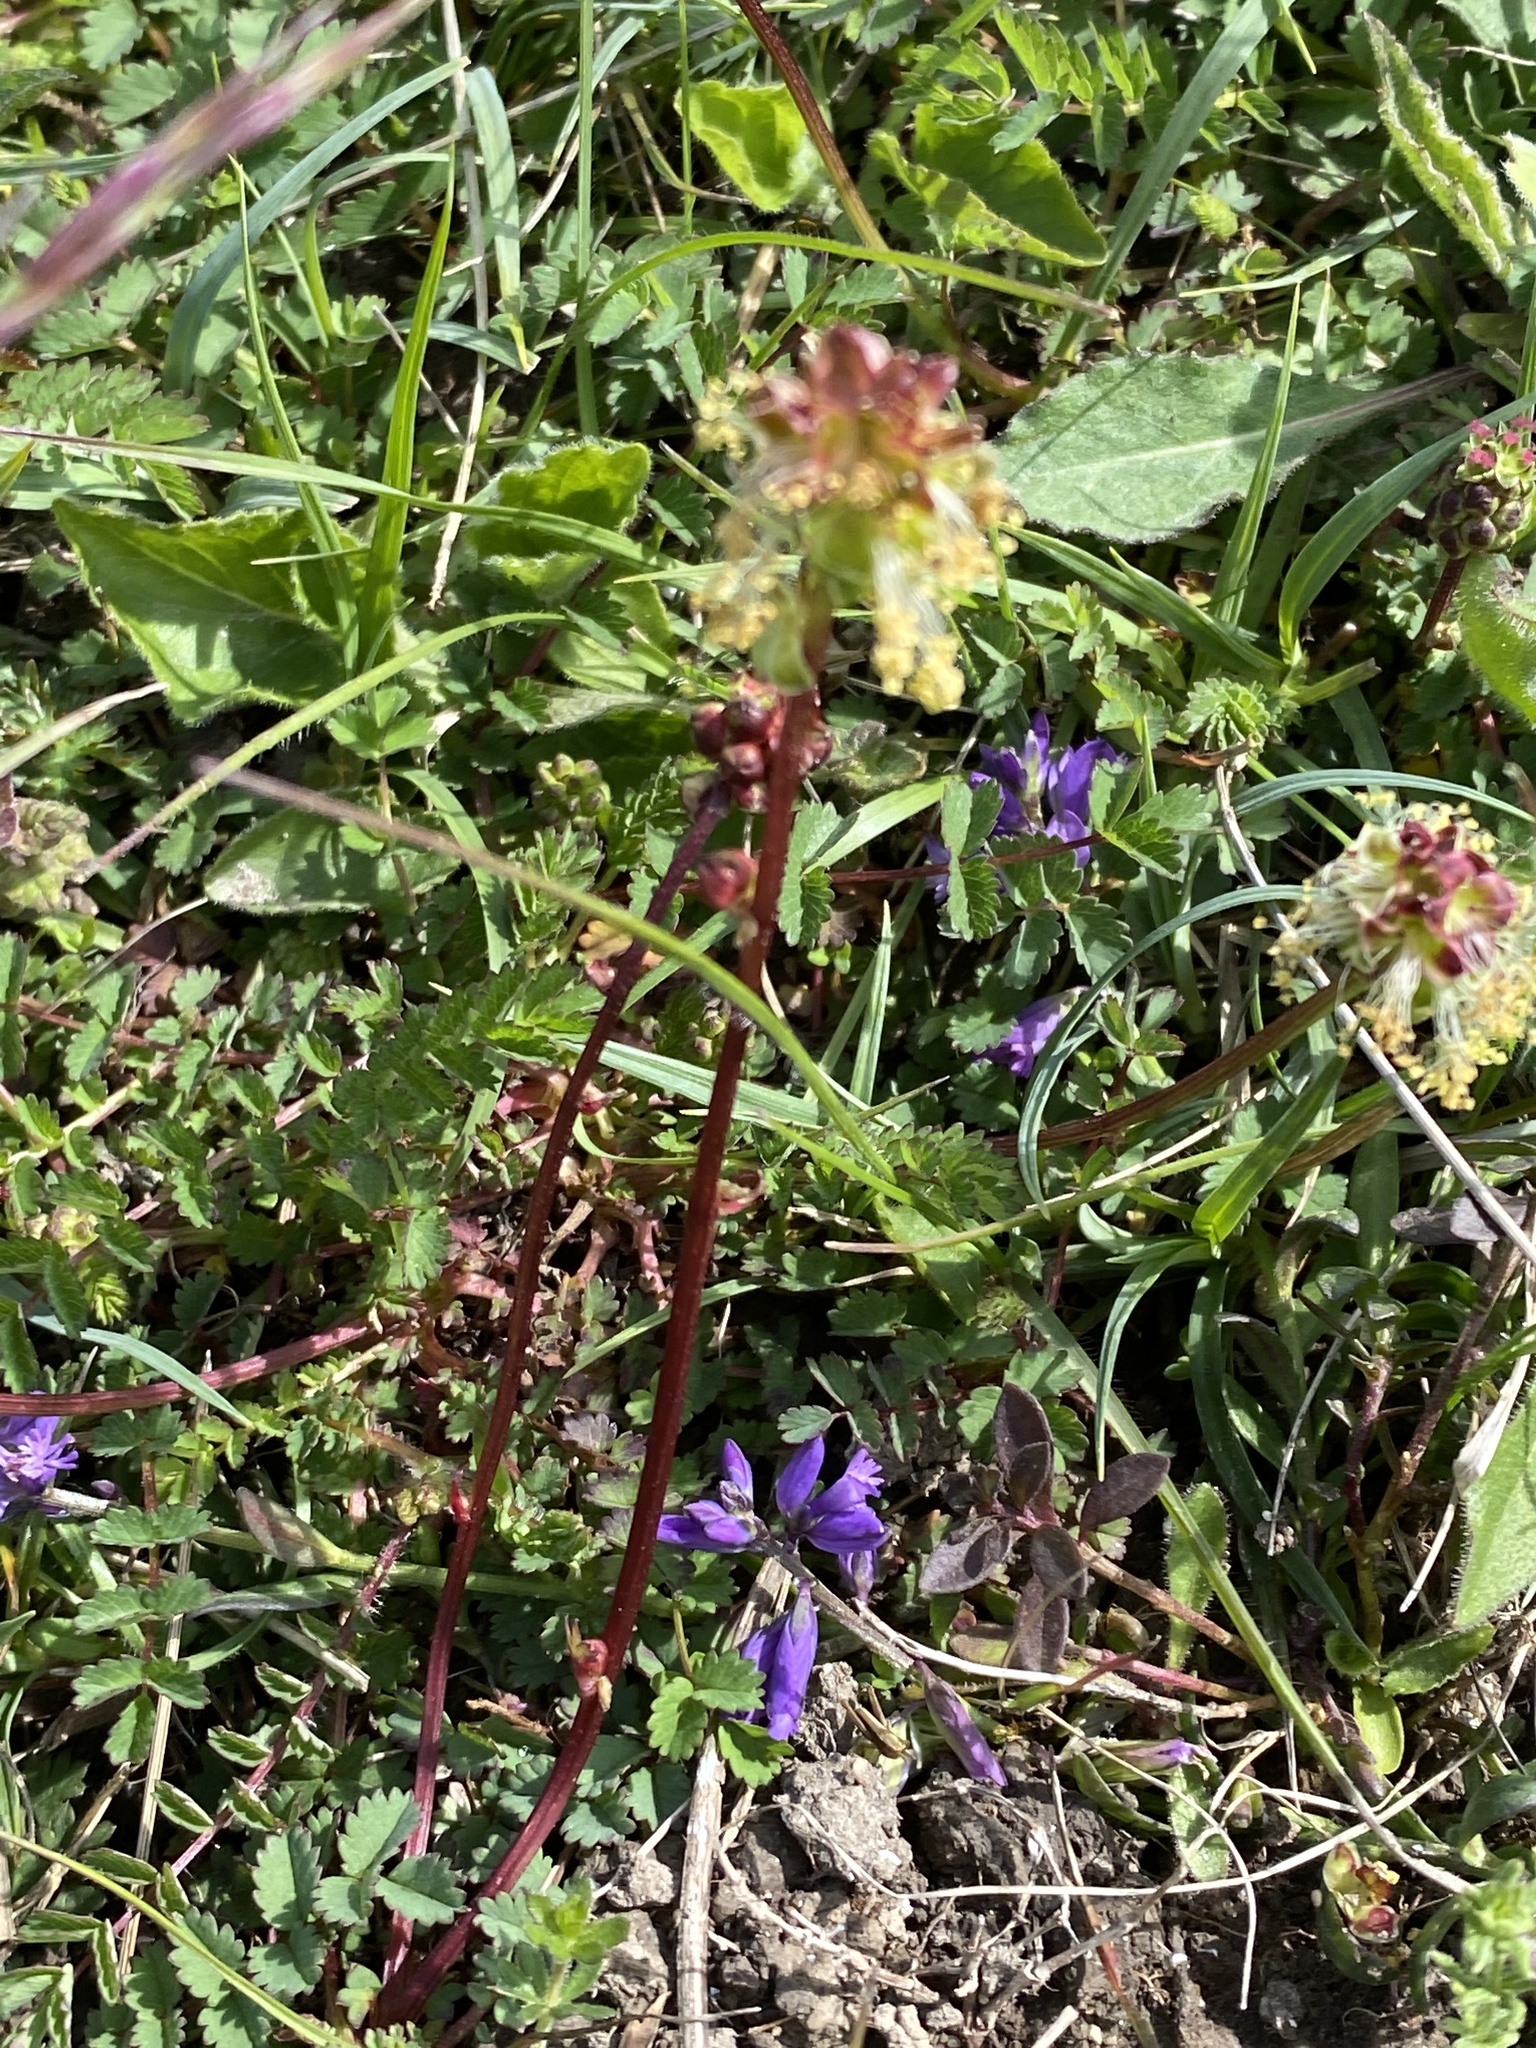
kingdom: Plantae
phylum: Tracheophyta
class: Magnoliopsida
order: Rosales
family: Rosaceae
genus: Poterium
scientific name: Poterium sanguisorba
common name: Salad burnet
